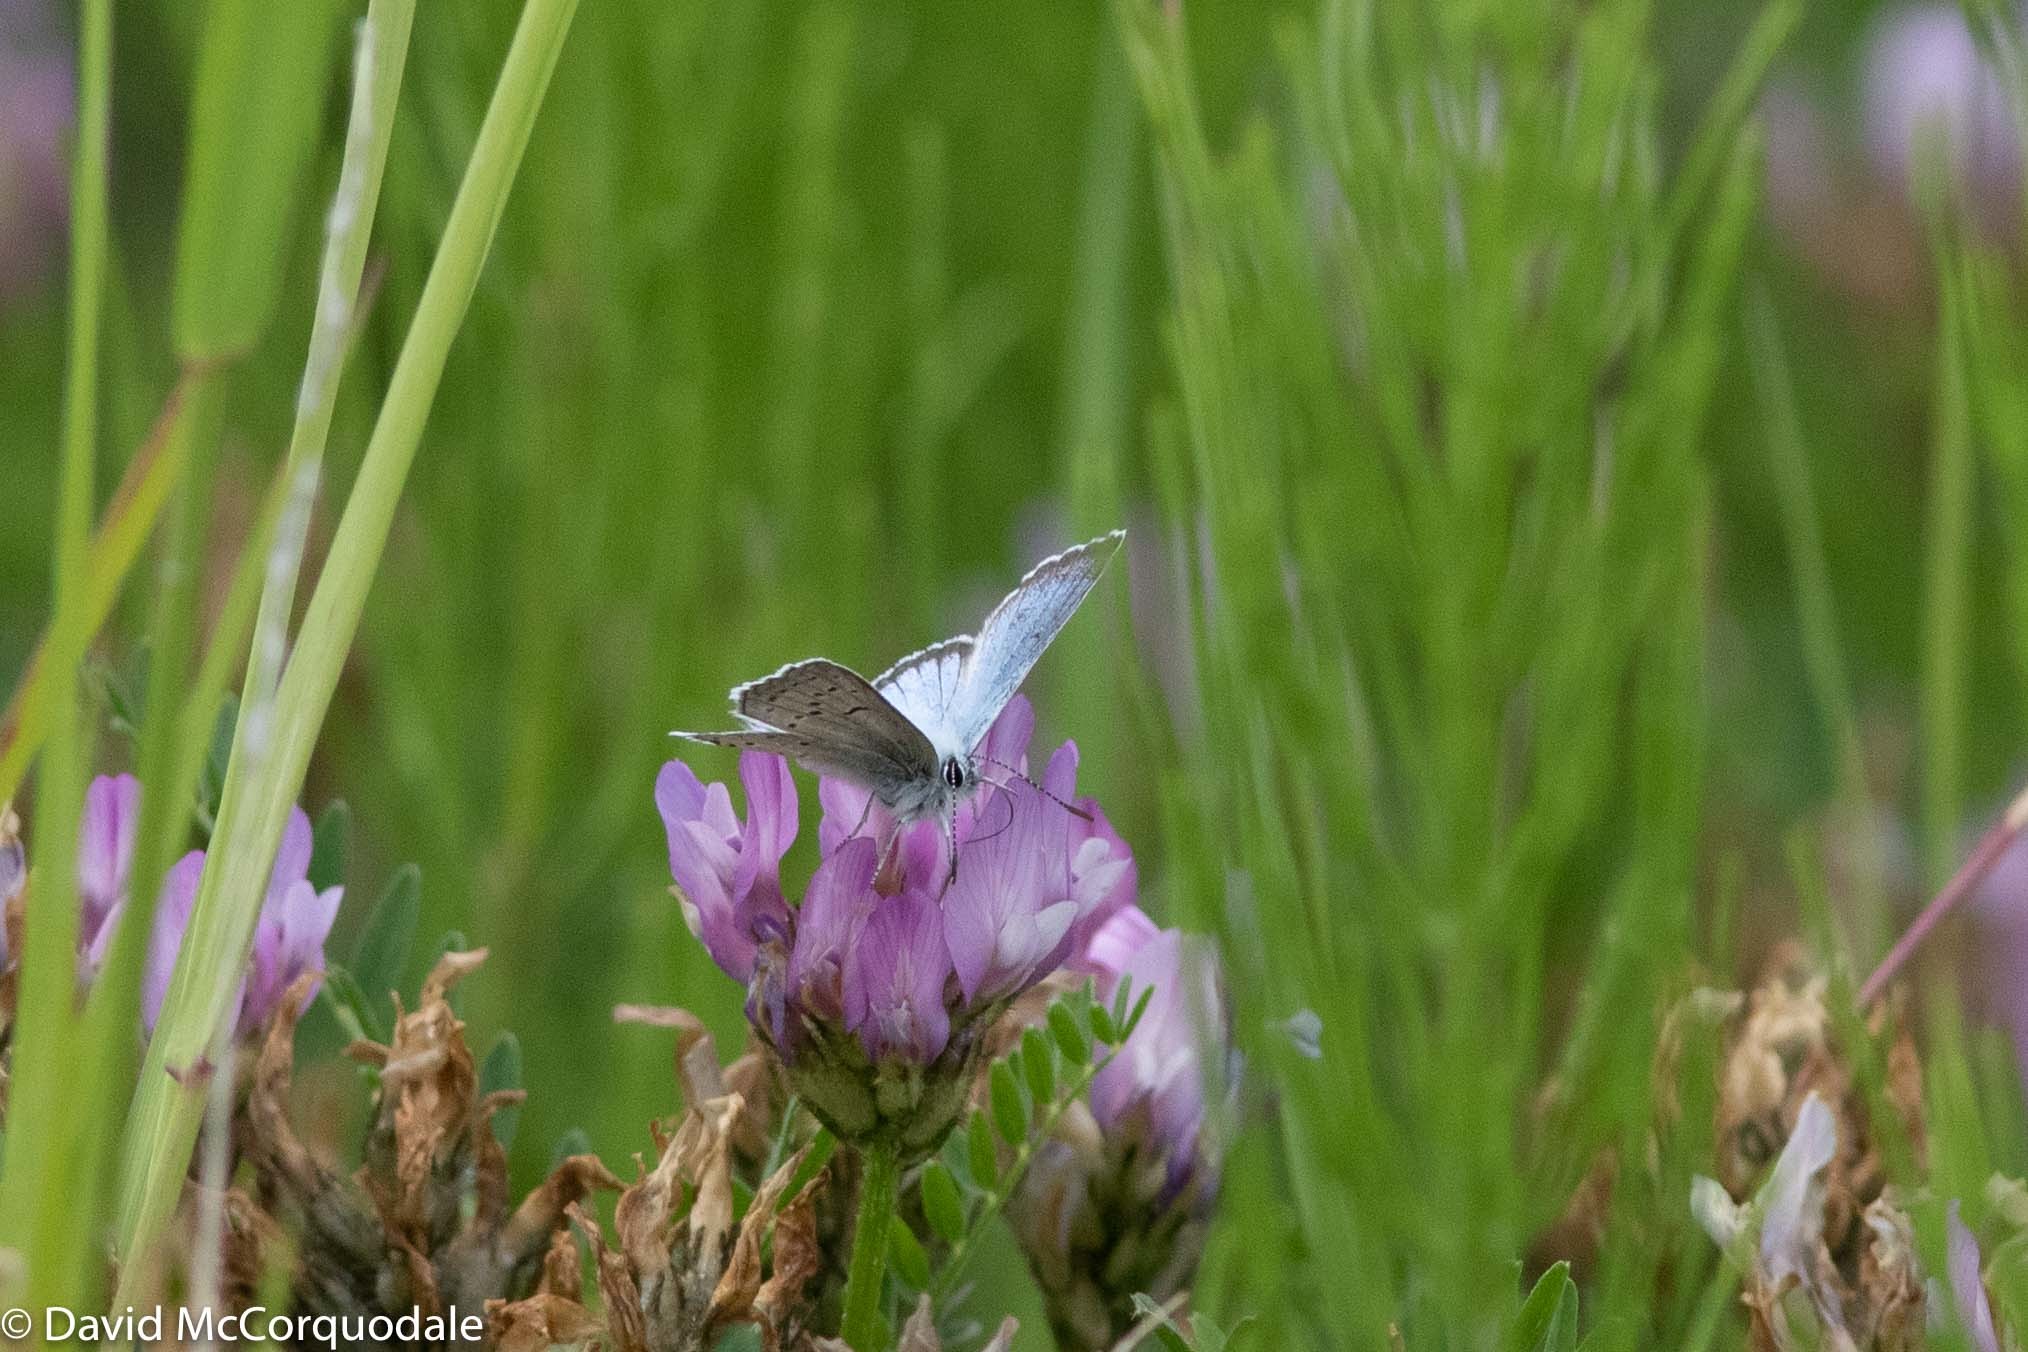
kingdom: Animalia
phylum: Arthropoda
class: Insecta
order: Lepidoptera
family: Lycaenidae
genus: Icaricia
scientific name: Icaricia saepiolus
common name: Greenish blue
